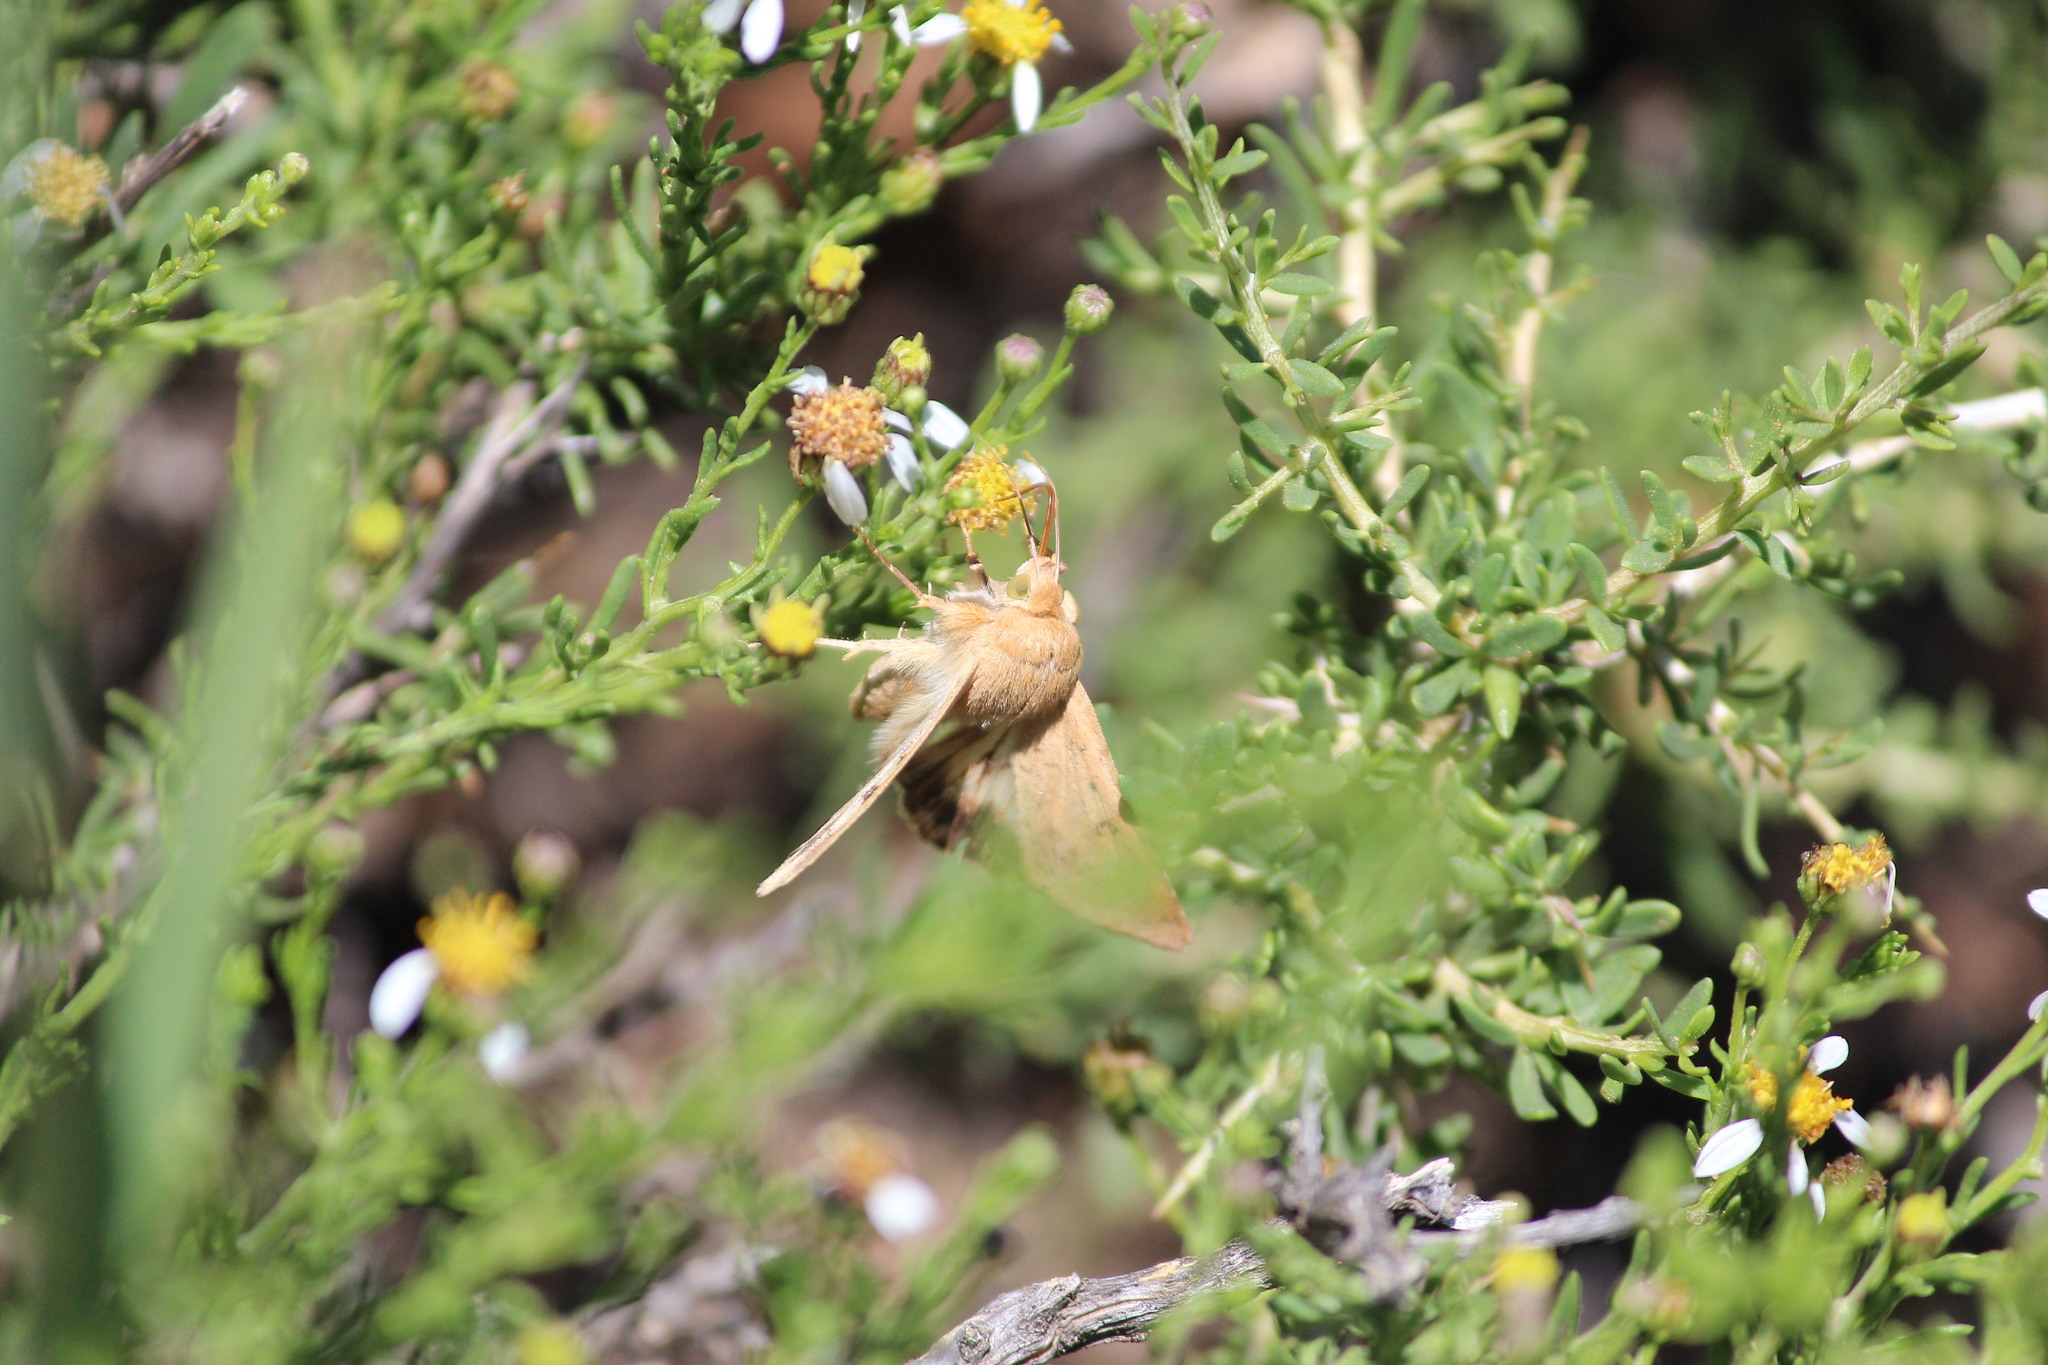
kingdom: Animalia
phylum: Arthropoda
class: Insecta
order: Lepidoptera
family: Noctuidae
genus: Helicoverpa
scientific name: Helicoverpa armigera
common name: Cotton bollworm
